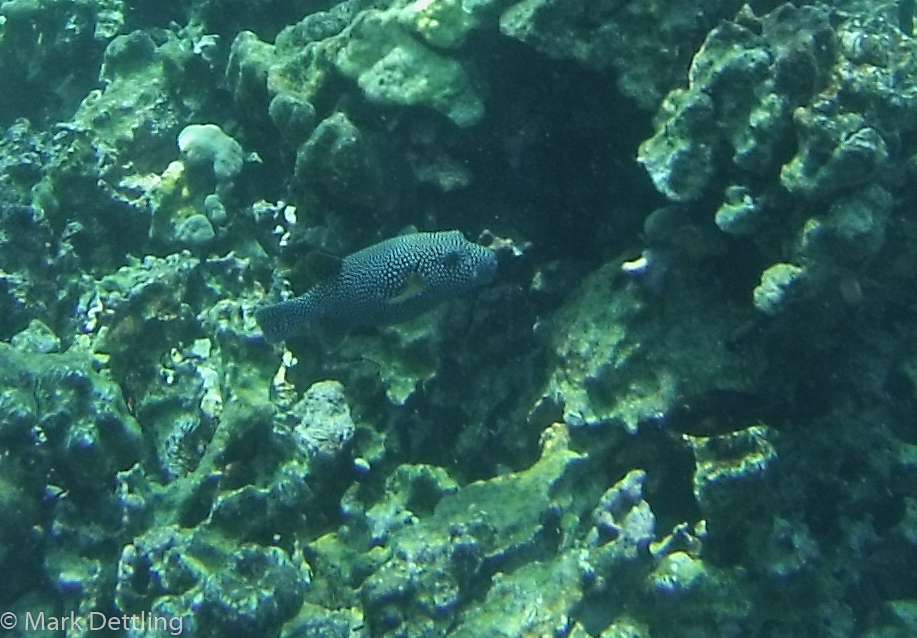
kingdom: Animalia
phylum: Chordata
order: Tetraodontiformes
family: Tetraodontidae
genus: Arothron
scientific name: Arothron meleagris
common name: Guinea-fowl pufferfish
